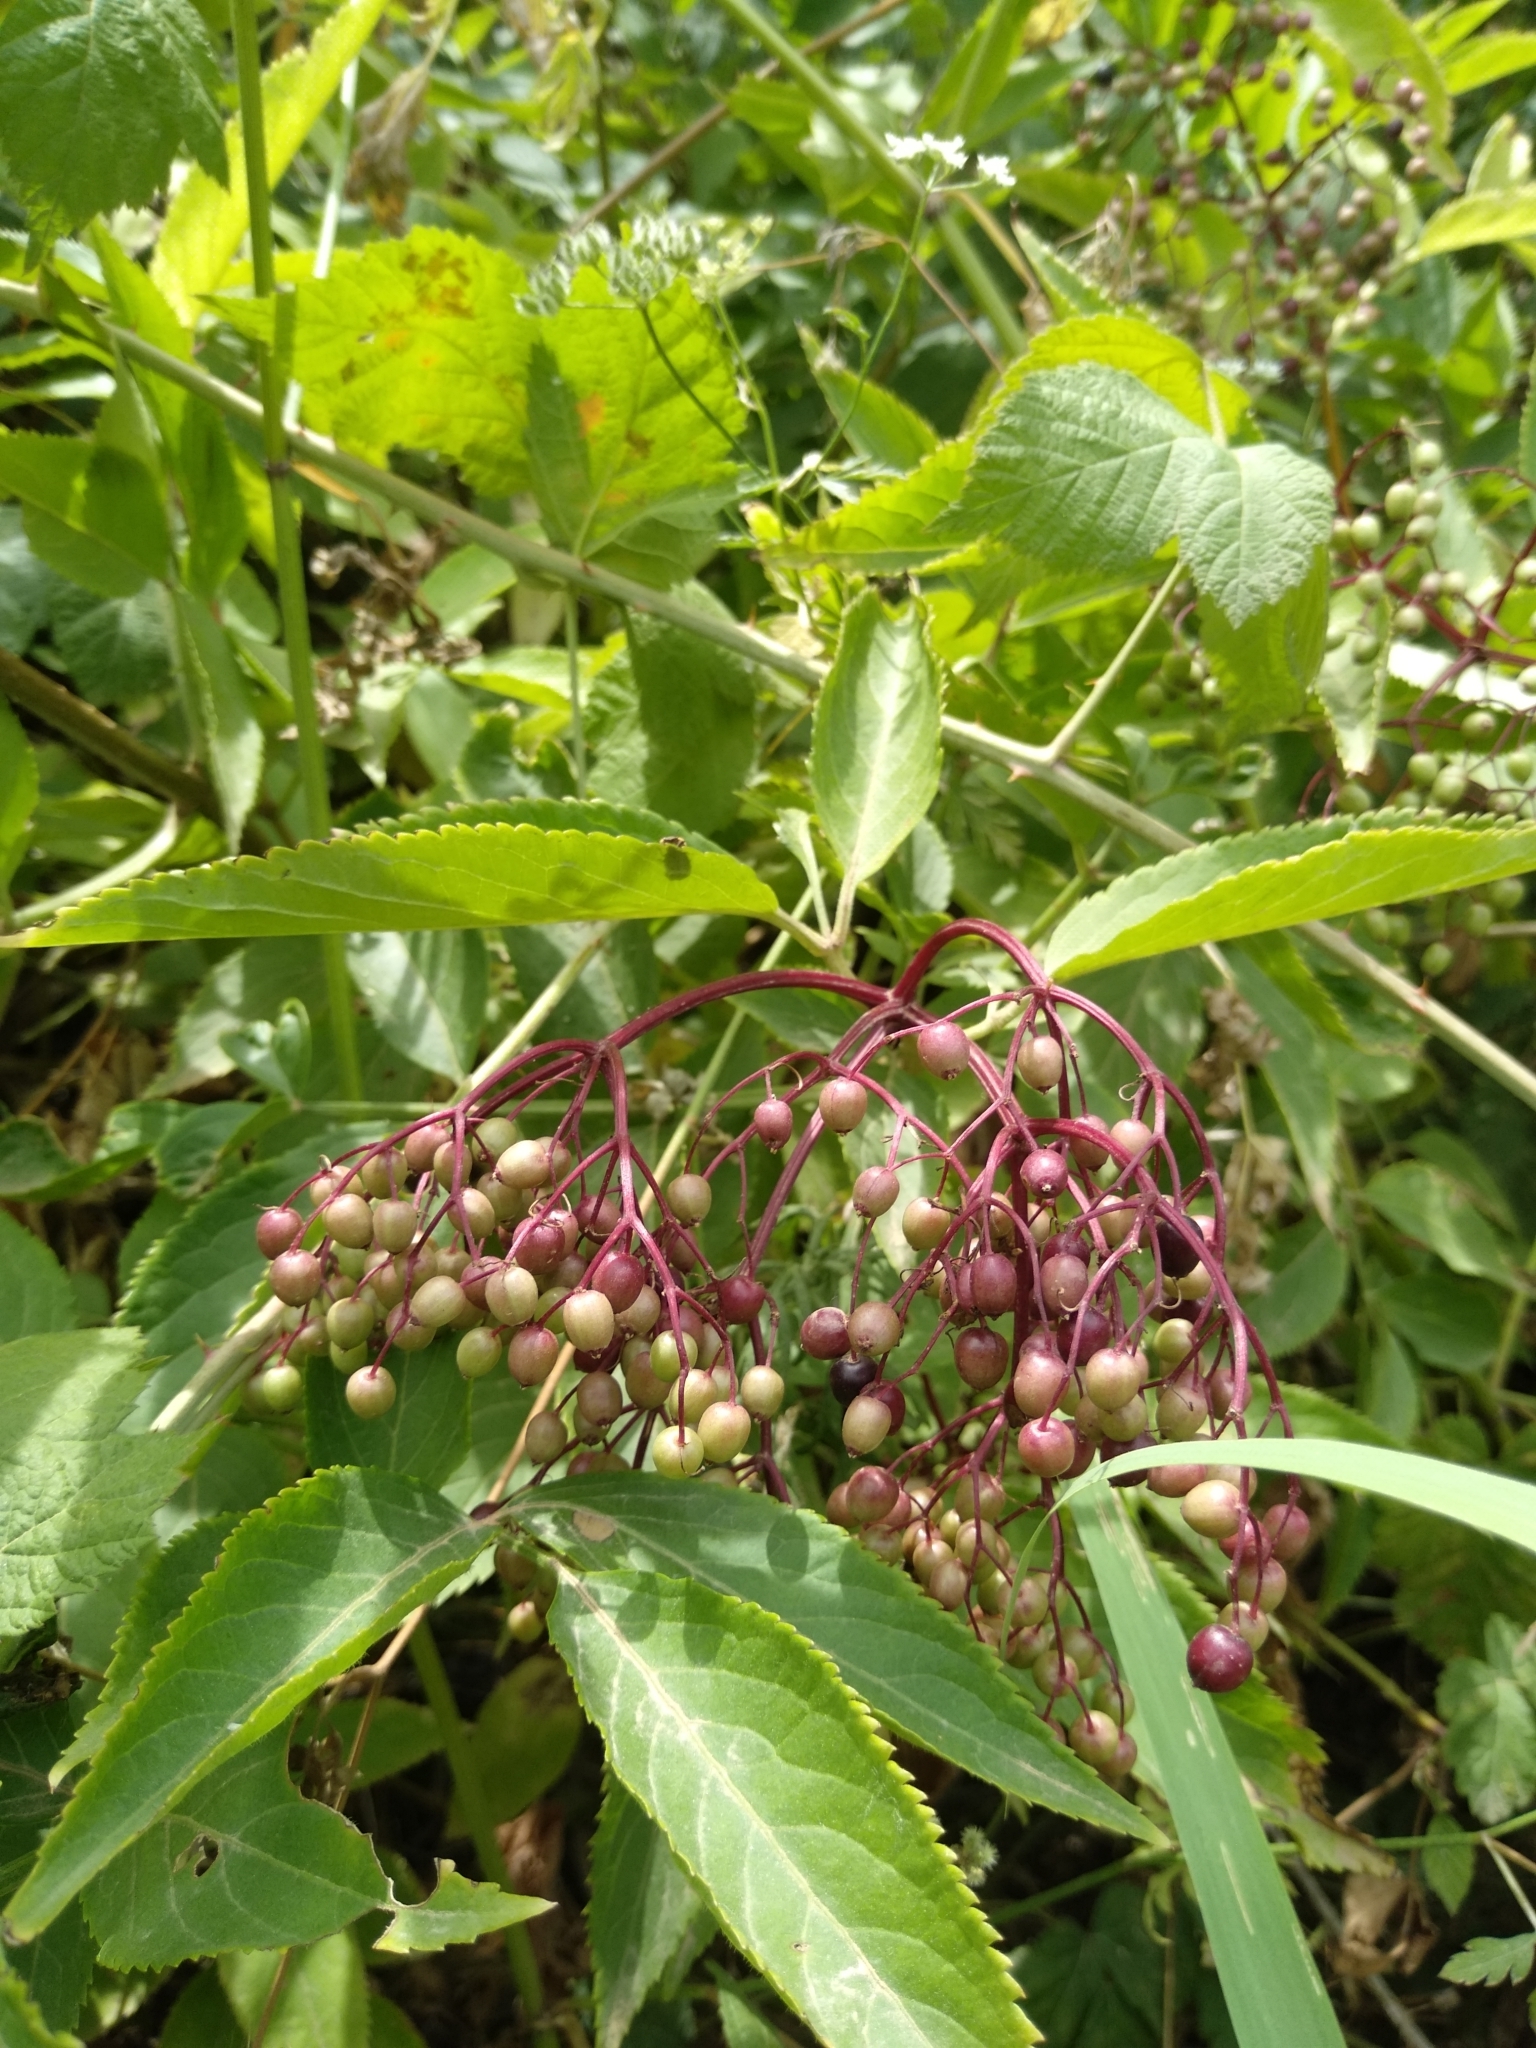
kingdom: Plantae
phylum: Tracheophyta
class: Magnoliopsida
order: Dipsacales
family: Viburnaceae
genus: Sambucus
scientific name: Sambucus nigra
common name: Elder
